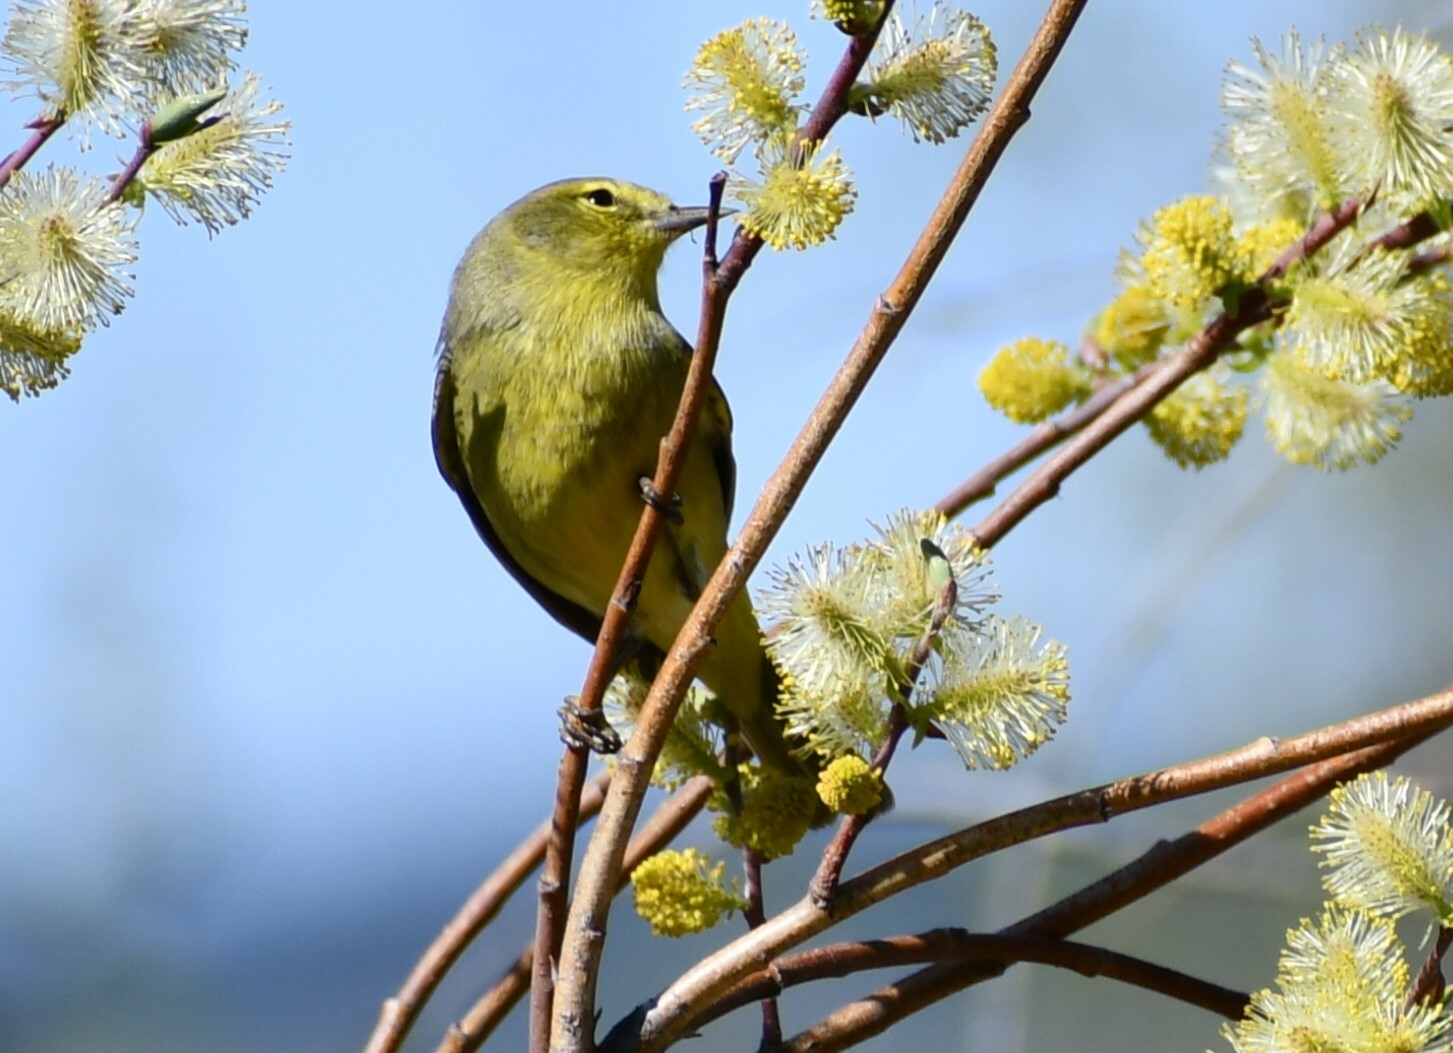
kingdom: Animalia
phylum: Chordata
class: Aves
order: Passeriformes
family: Parulidae
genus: Leiothlypis
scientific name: Leiothlypis celata
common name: Orange-crowned warbler
